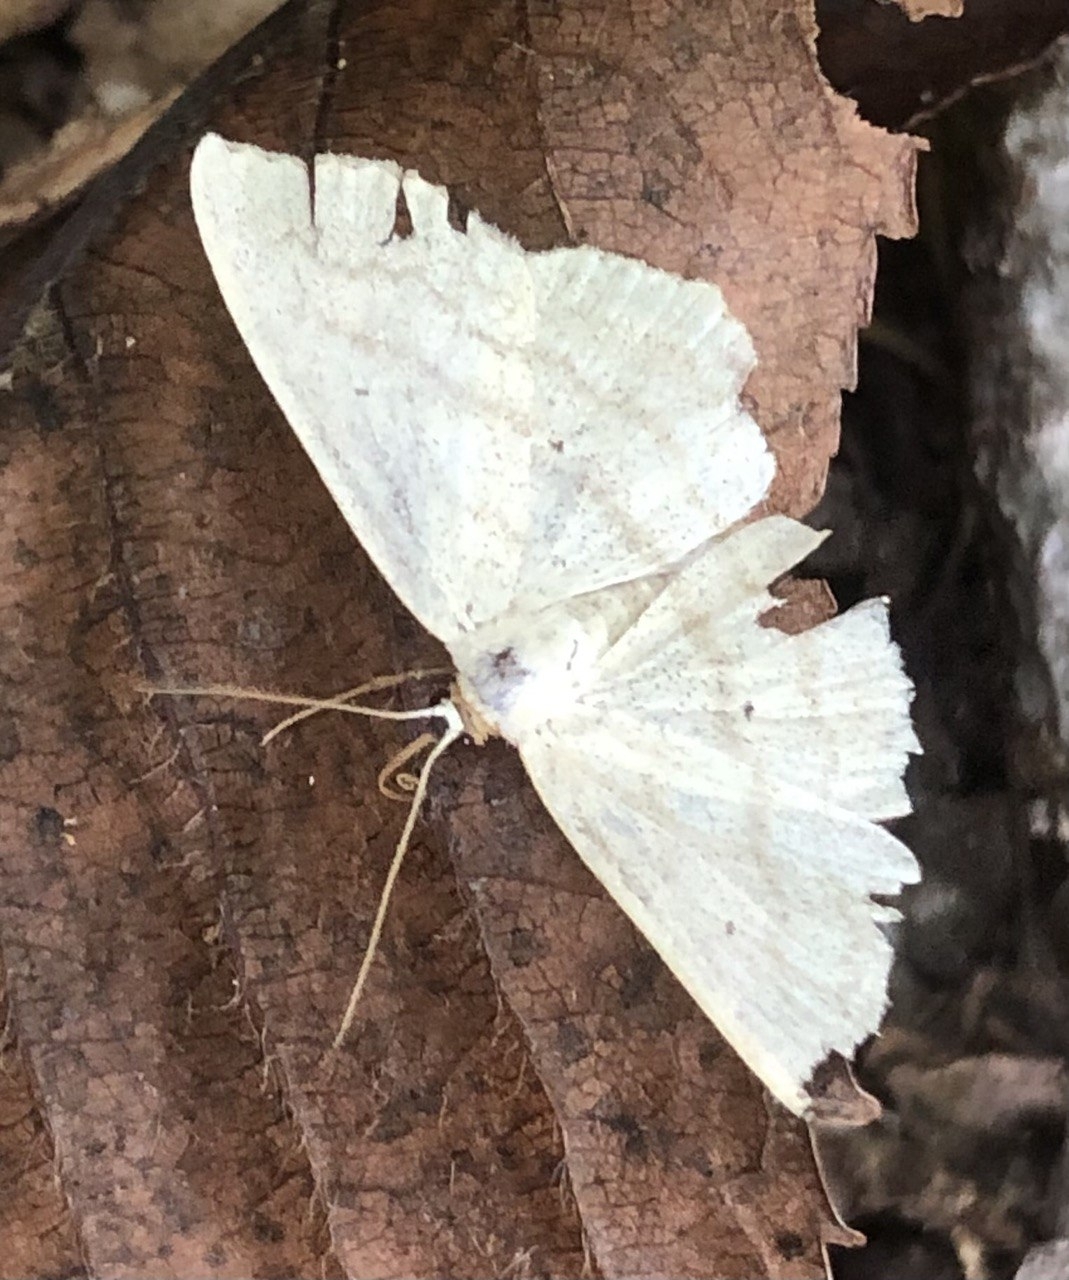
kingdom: Animalia
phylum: Arthropoda
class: Insecta
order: Lepidoptera
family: Geometridae
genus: Scopula
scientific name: Scopula nigropunctata
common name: Sub-angled wave
